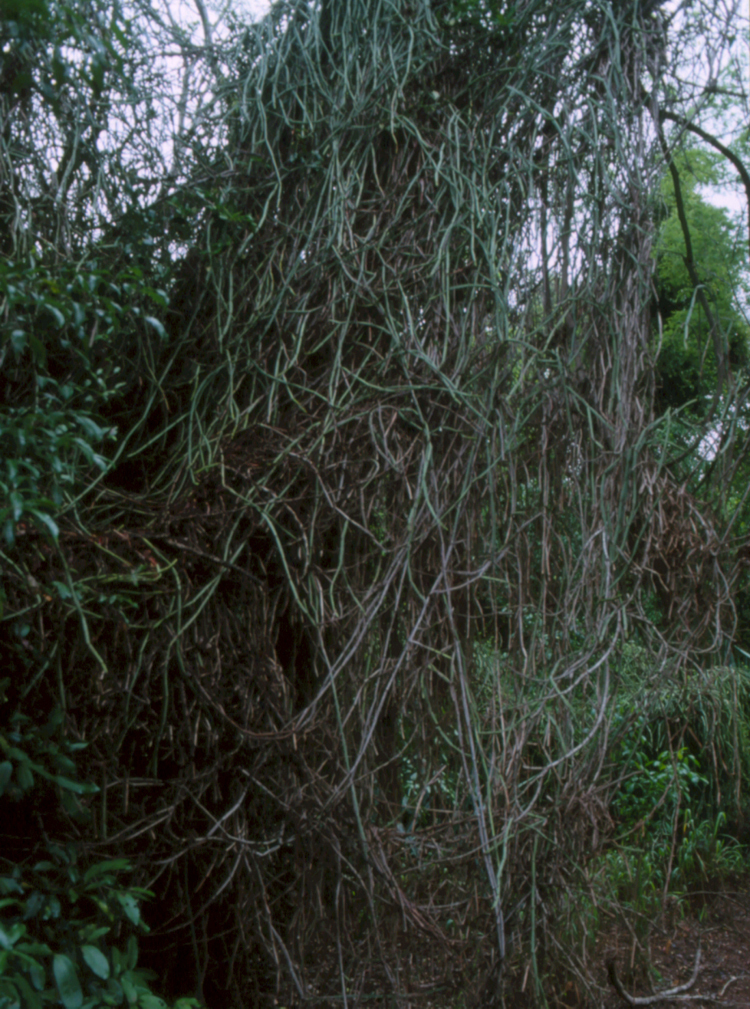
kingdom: Plantae
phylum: Tracheophyta
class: Magnoliopsida
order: Vitales
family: Vitaceae
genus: Cissus
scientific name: Cissus quadrangularis
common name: Veldt-grape
